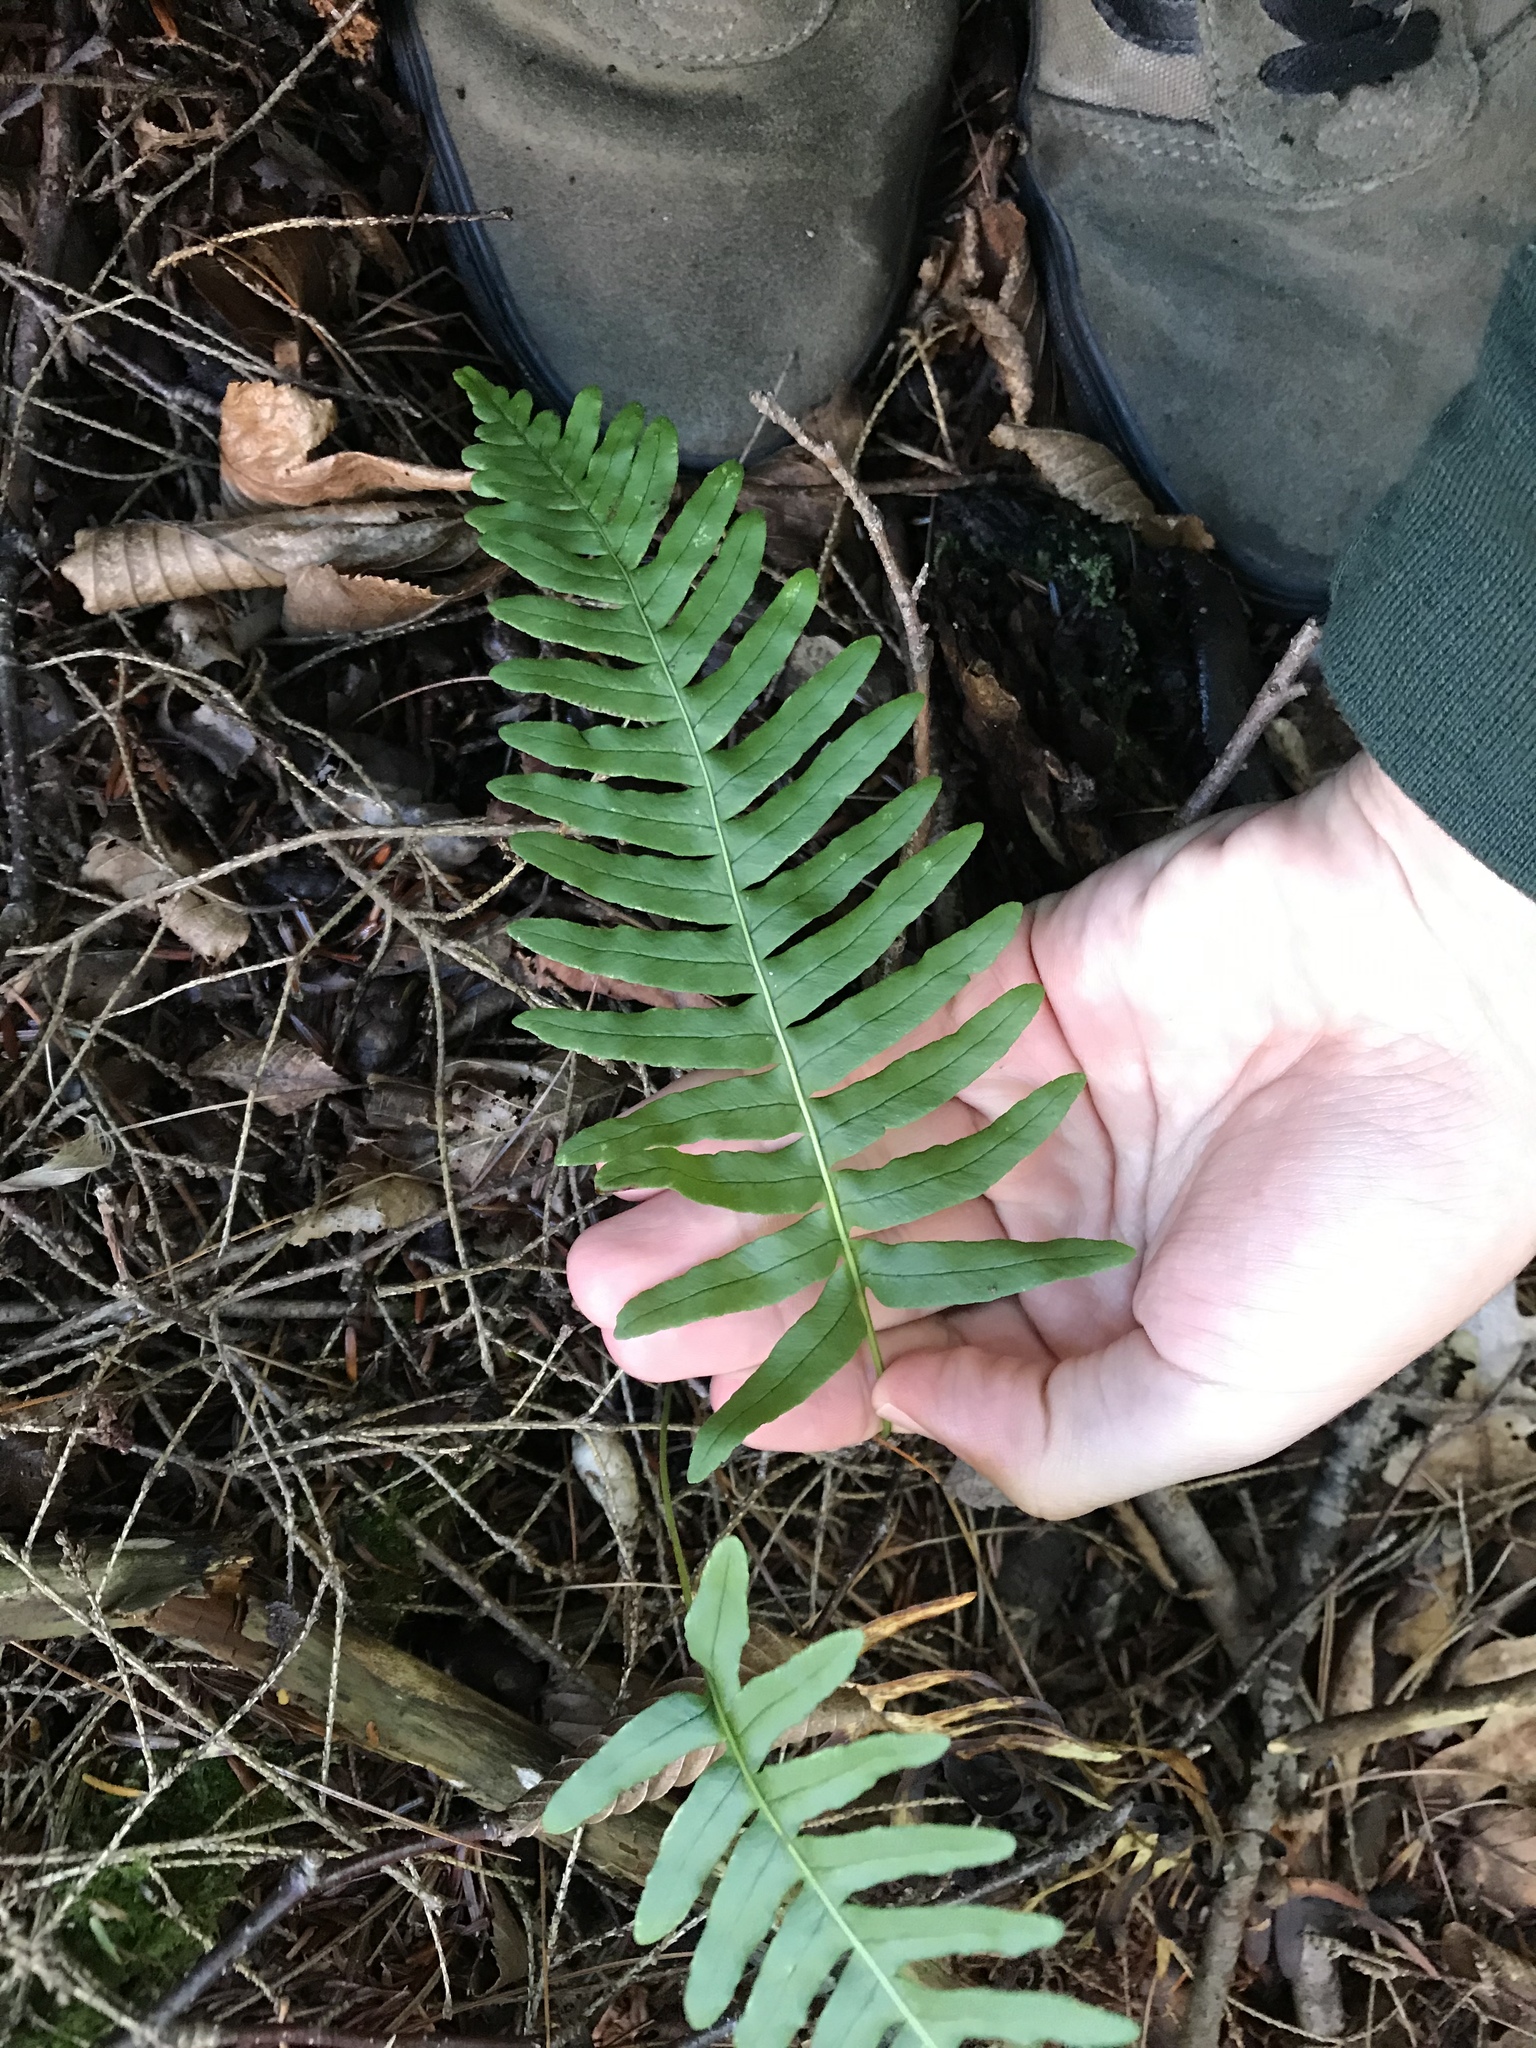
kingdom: Plantae
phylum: Tracheophyta
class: Polypodiopsida
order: Polypodiales
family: Polypodiaceae
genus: Polypodium
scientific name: Polypodium appalachianum
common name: Appalachian polypody
